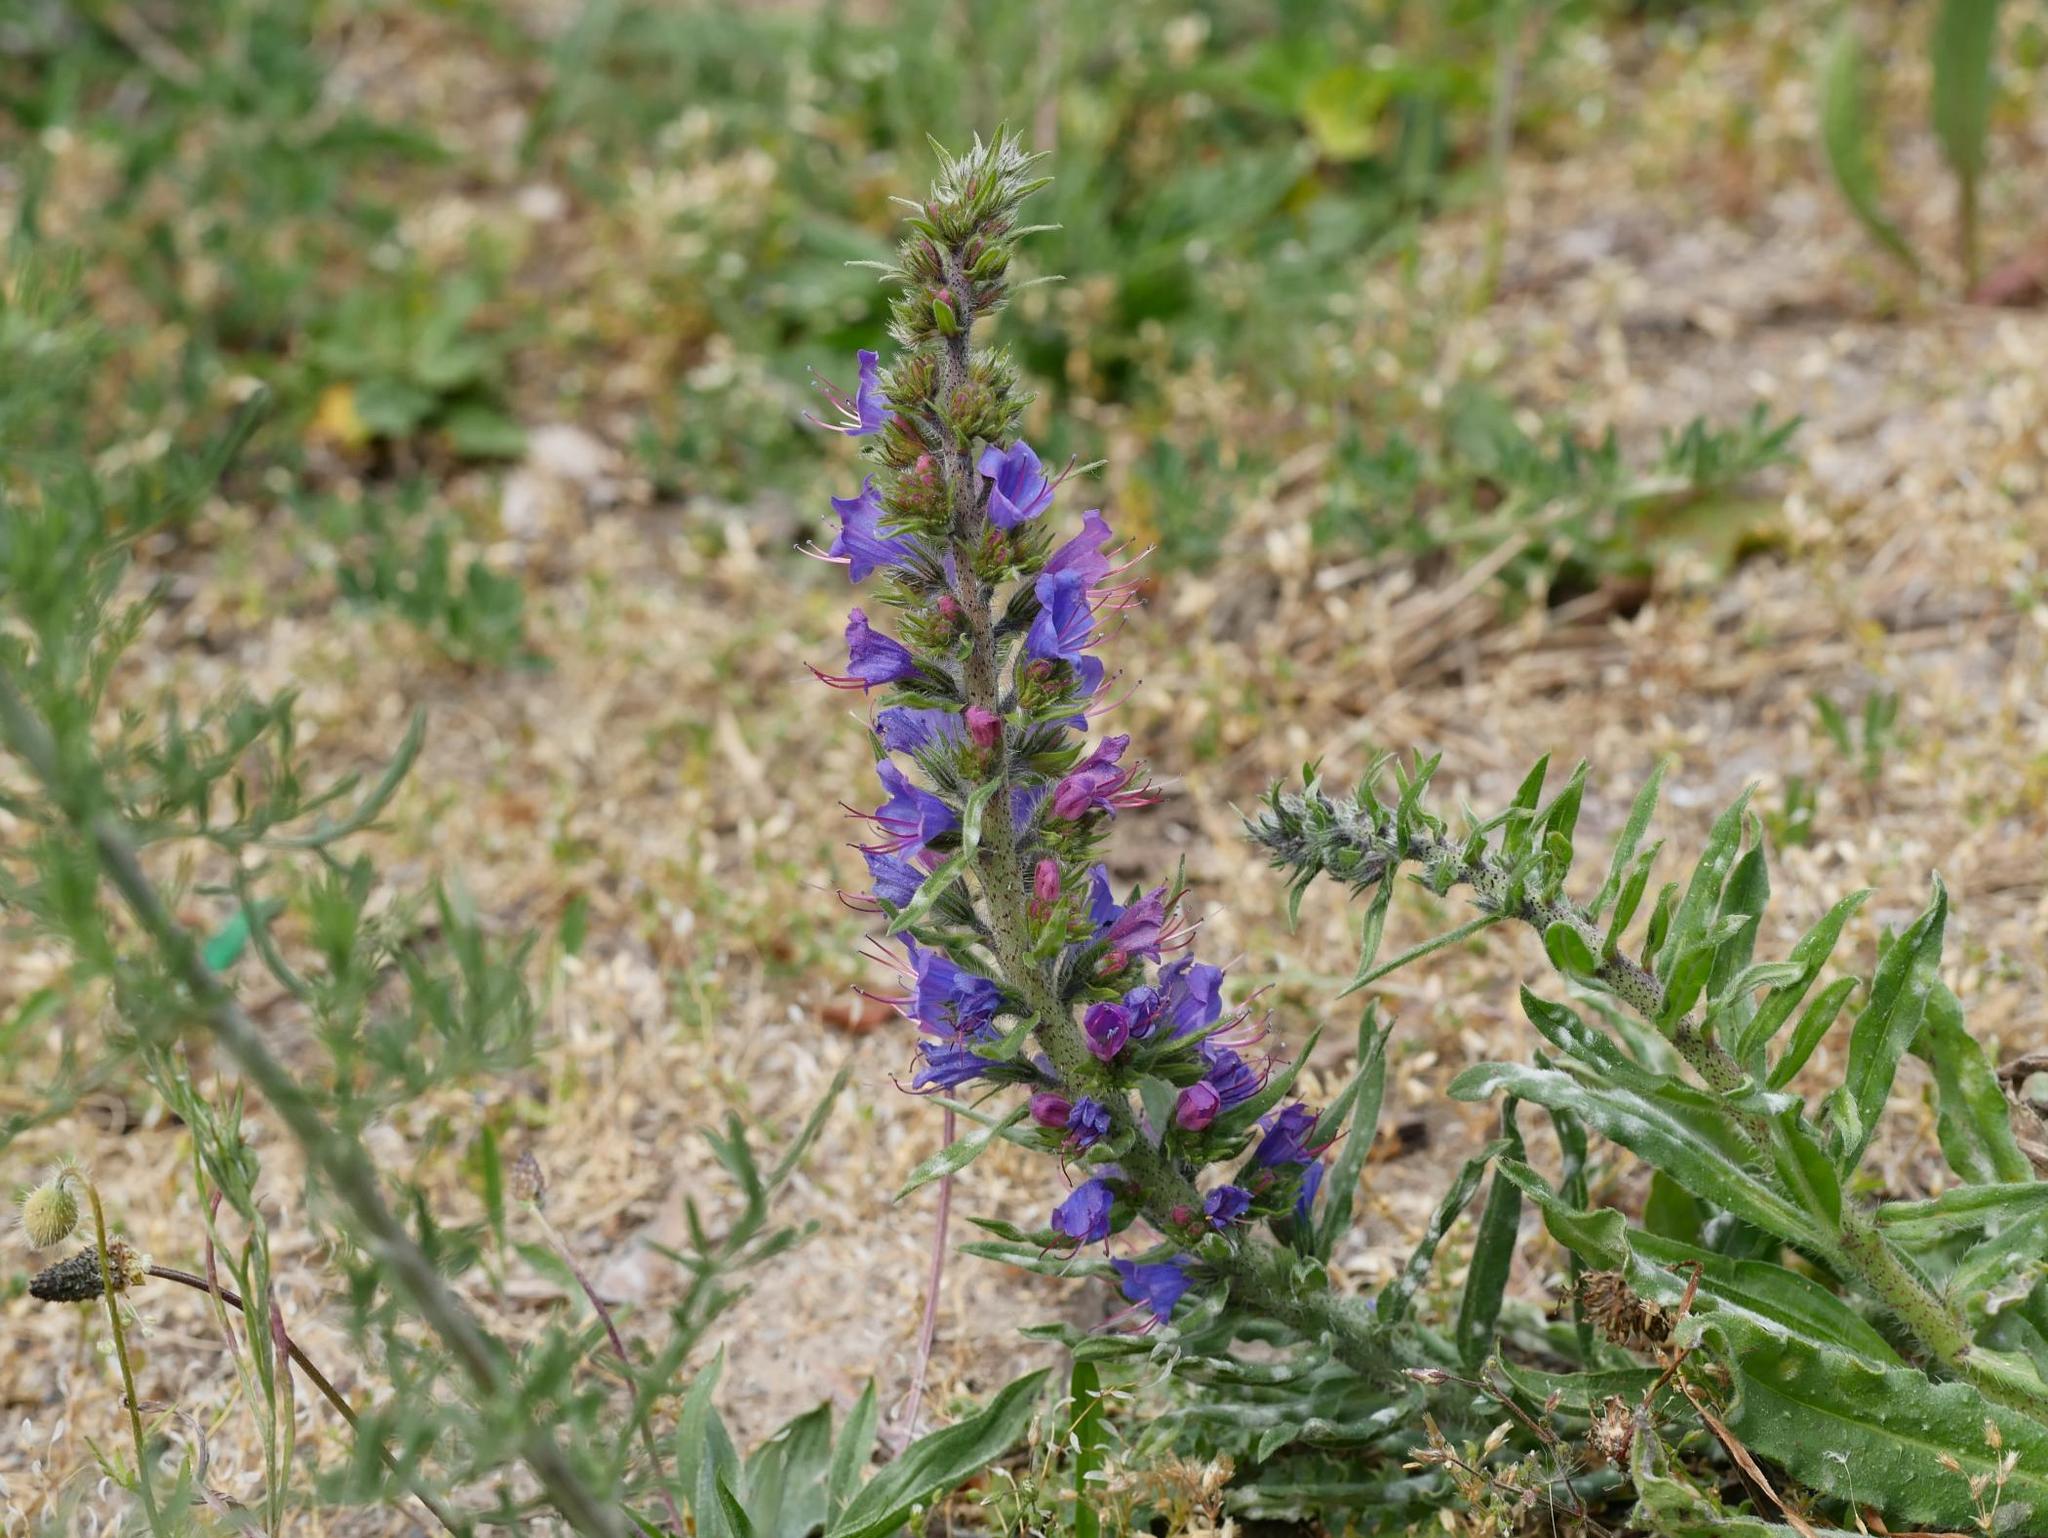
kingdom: Plantae
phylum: Tracheophyta
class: Magnoliopsida
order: Boraginales
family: Boraginaceae
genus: Echium
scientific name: Echium vulgare
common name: Common viper's bugloss
